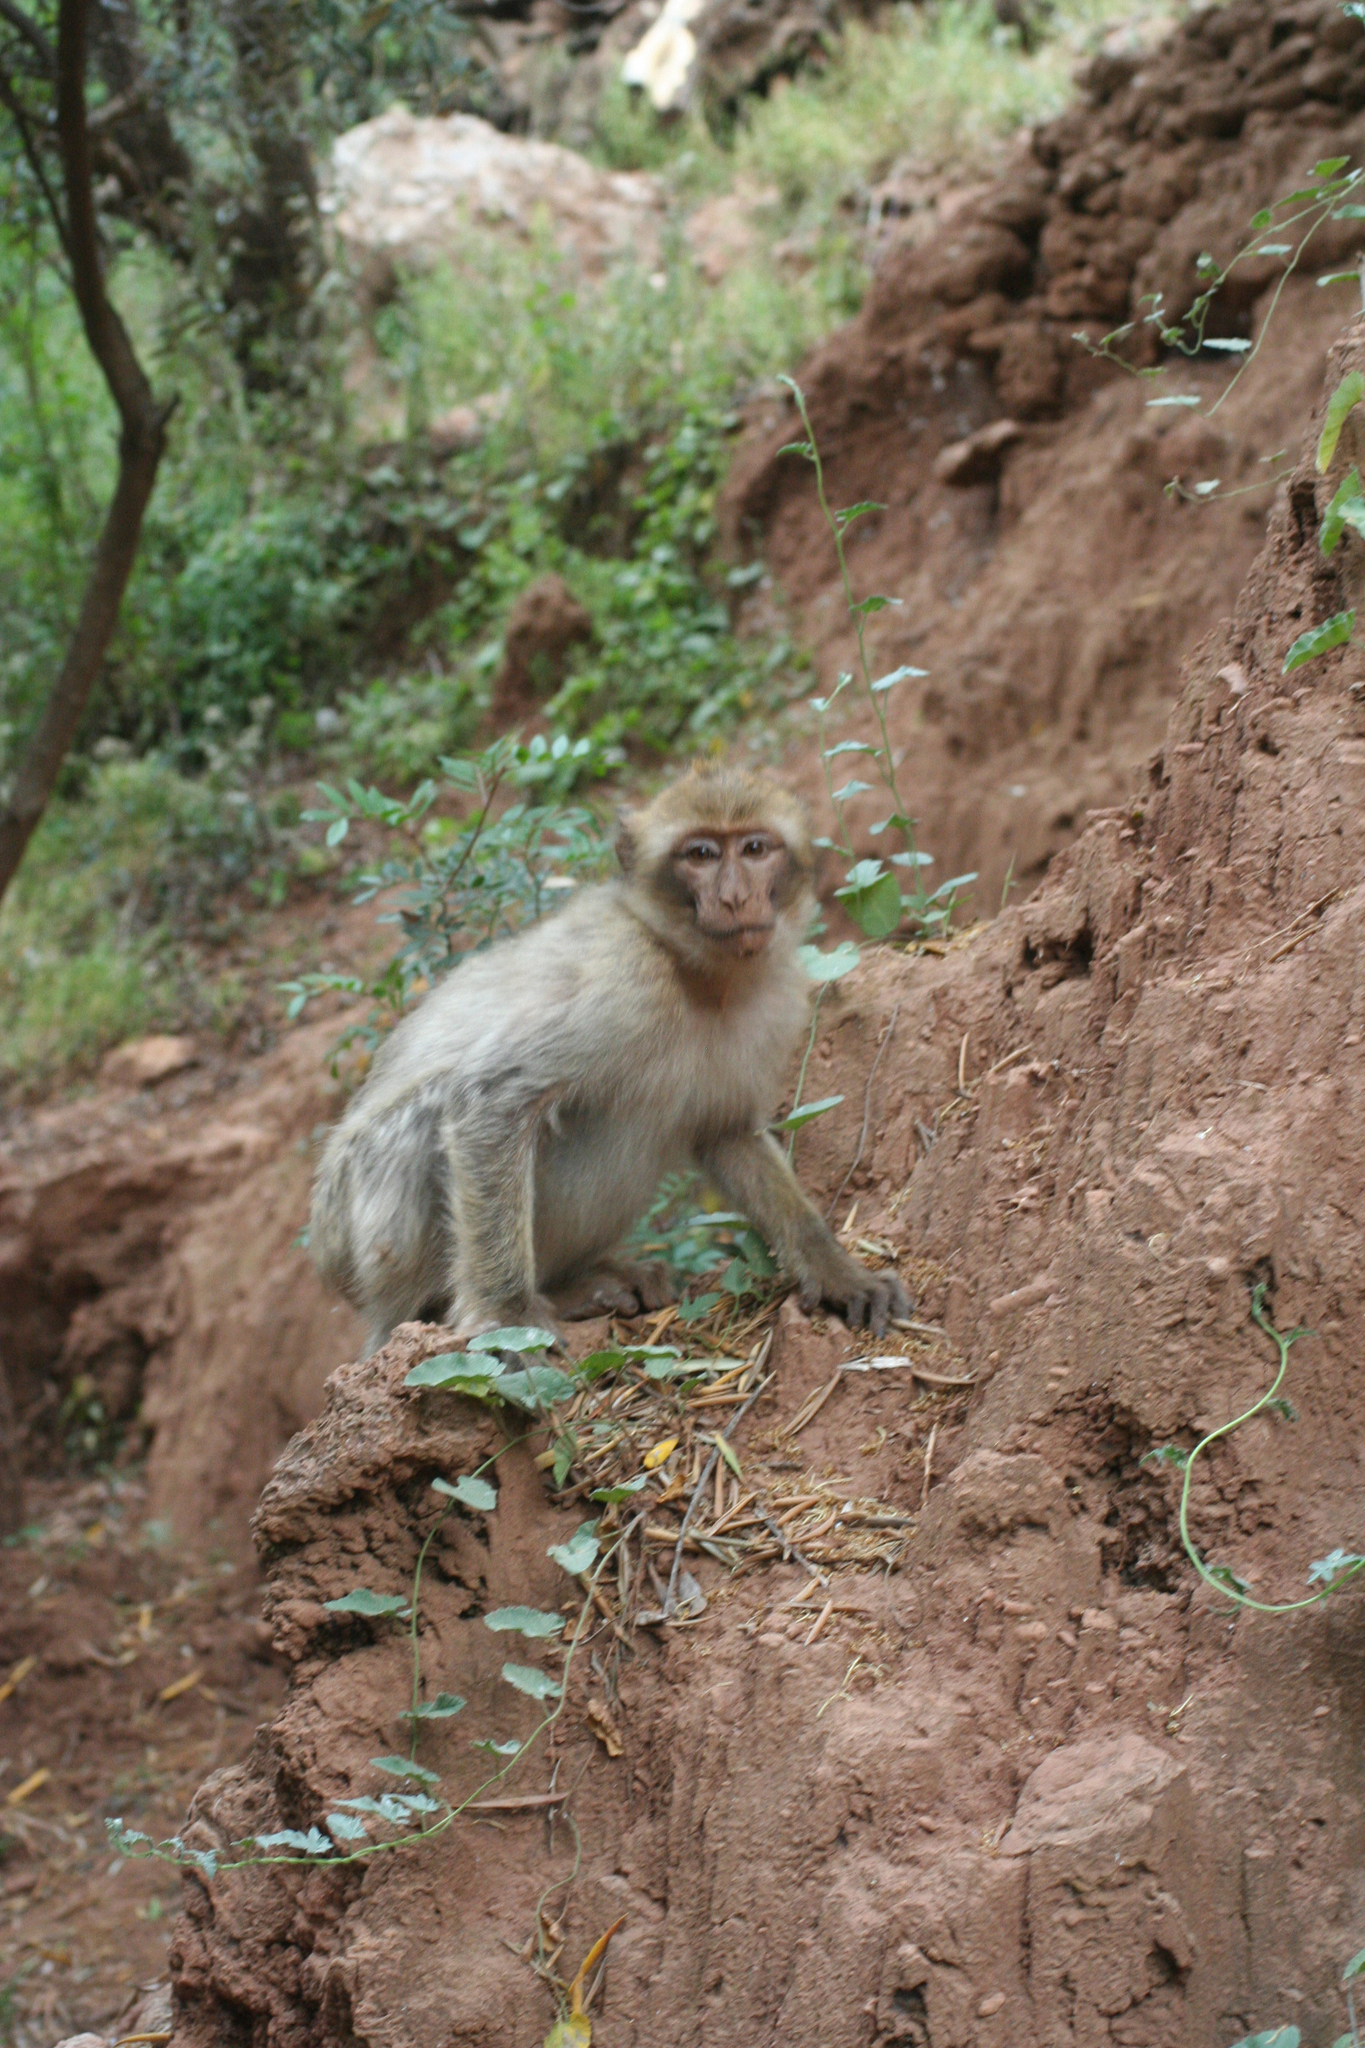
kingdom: Animalia
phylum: Chordata
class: Mammalia
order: Primates
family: Cercopithecidae
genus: Macaca
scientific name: Macaca sylvanus
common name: Barbary macaque
